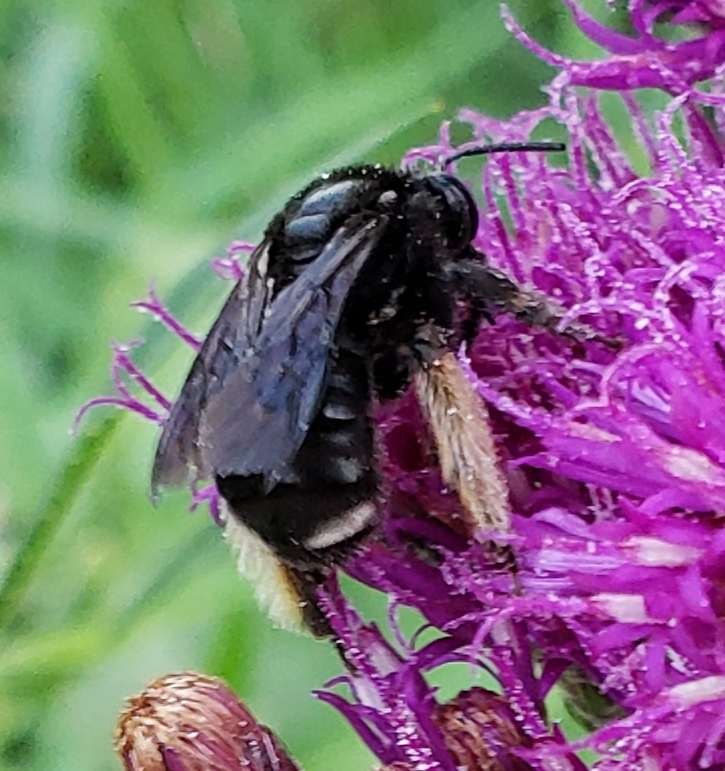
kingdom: Animalia
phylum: Arthropoda
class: Insecta
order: Hymenoptera
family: Apidae
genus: Melissodes
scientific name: Melissodes bimaculatus
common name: Two-spotted long-horned bee
